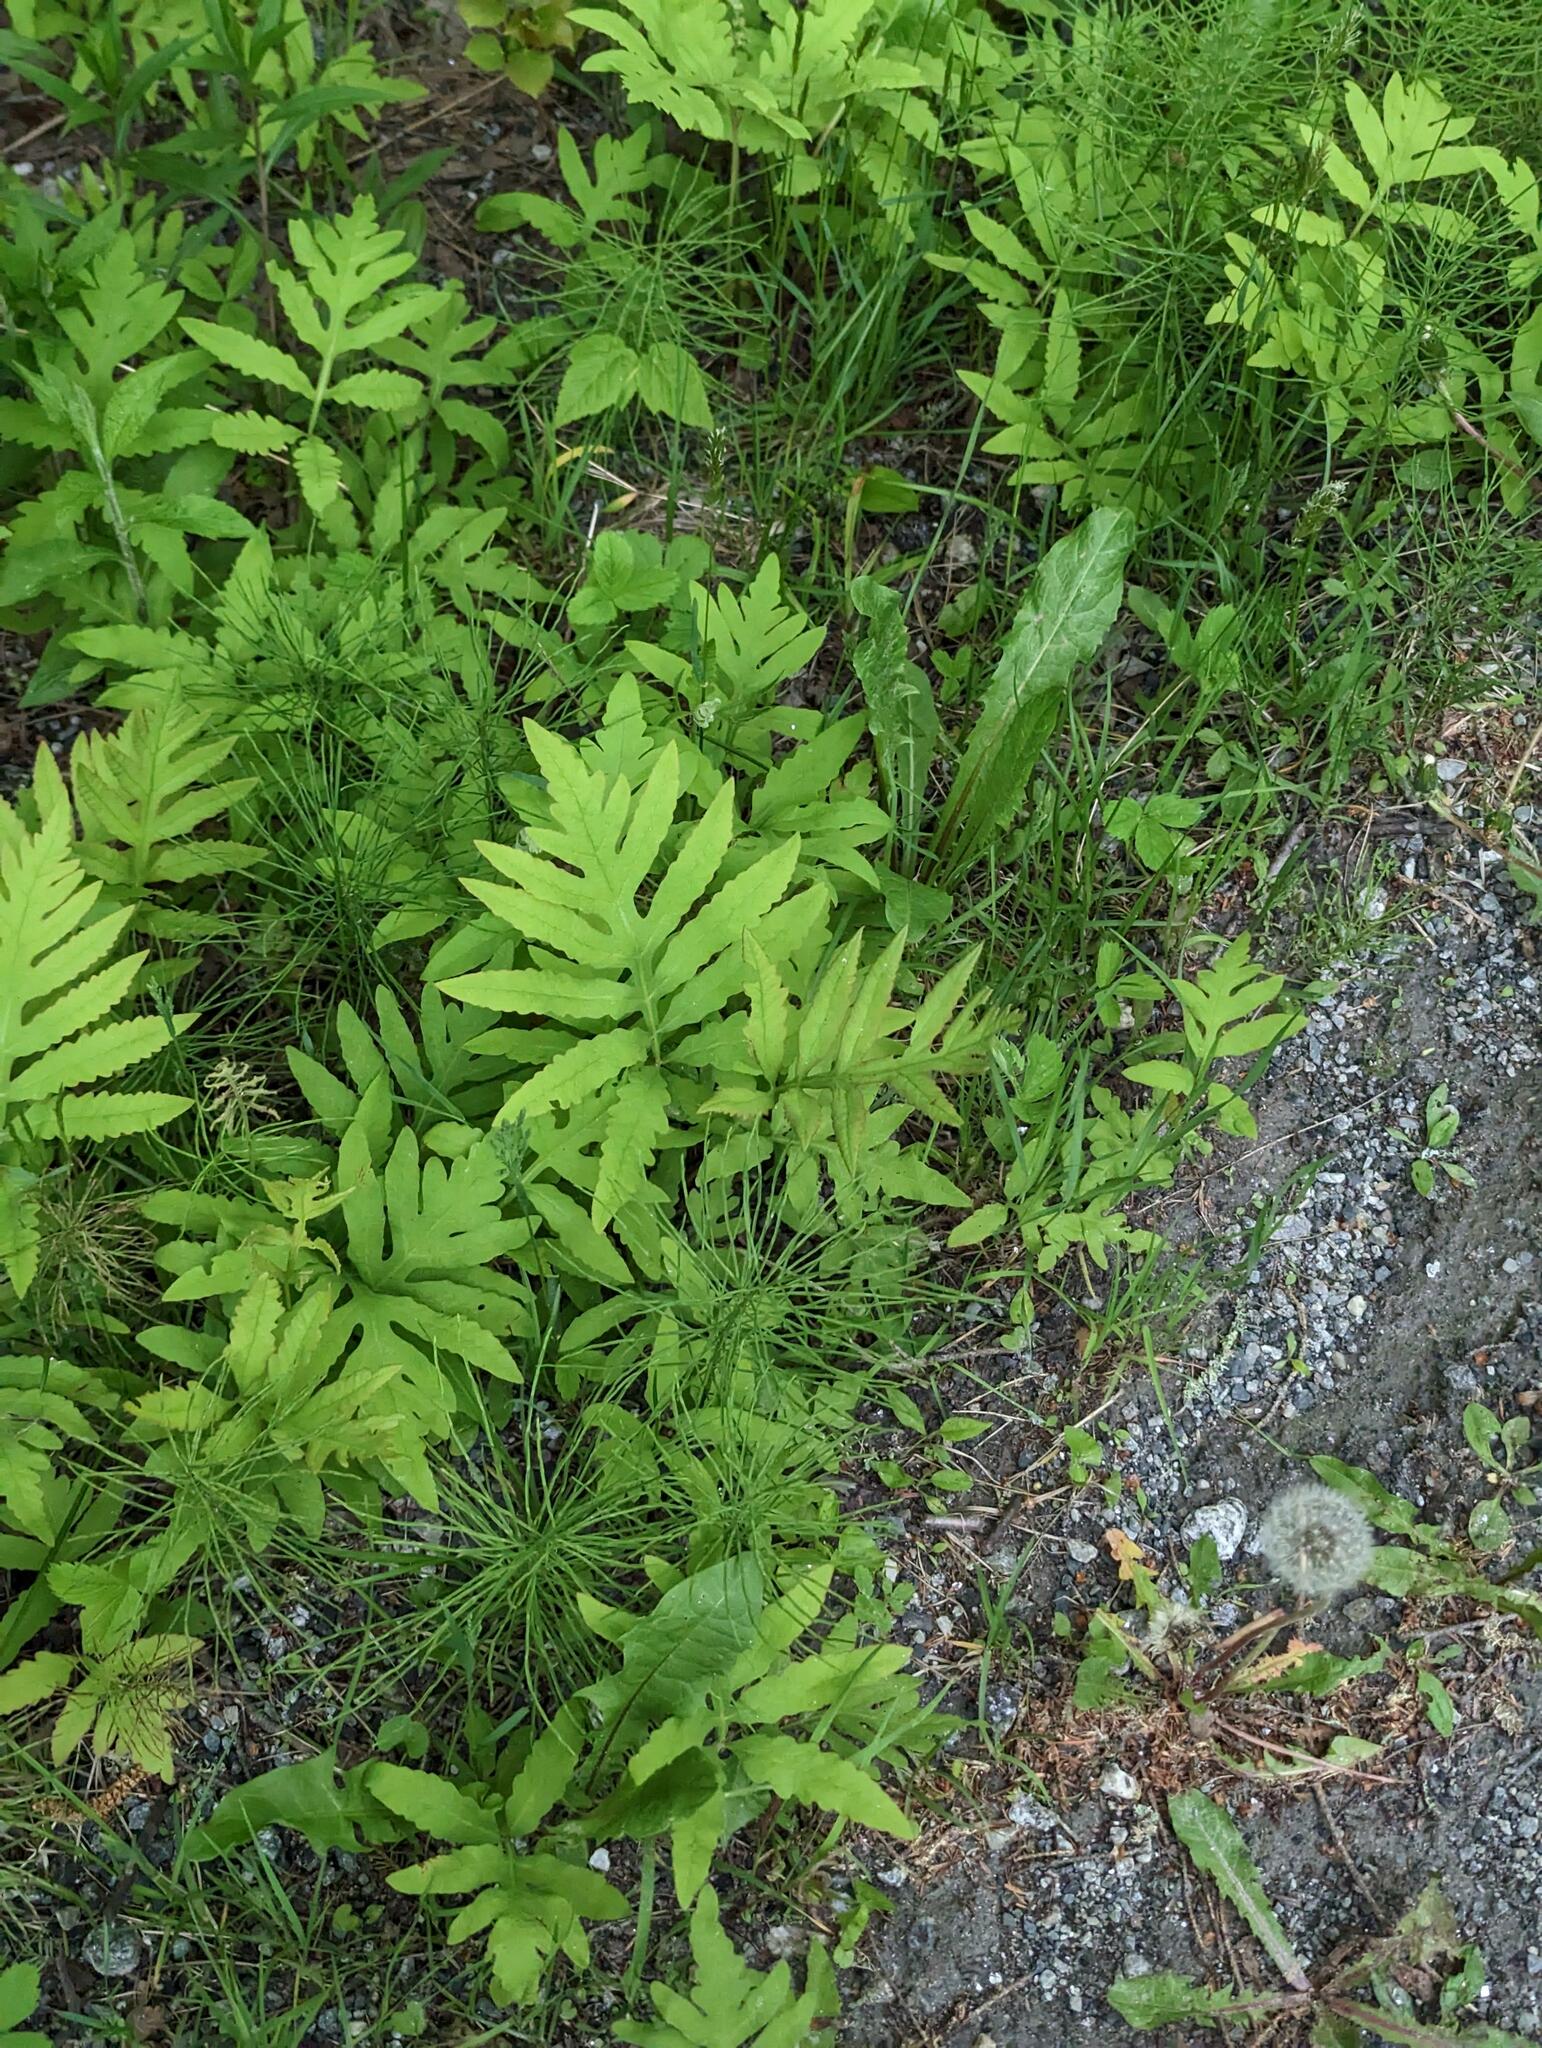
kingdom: Plantae
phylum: Tracheophyta
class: Polypodiopsida
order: Polypodiales
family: Onocleaceae
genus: Onoclea
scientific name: Onoclea sensibilis
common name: Sensitive fern
